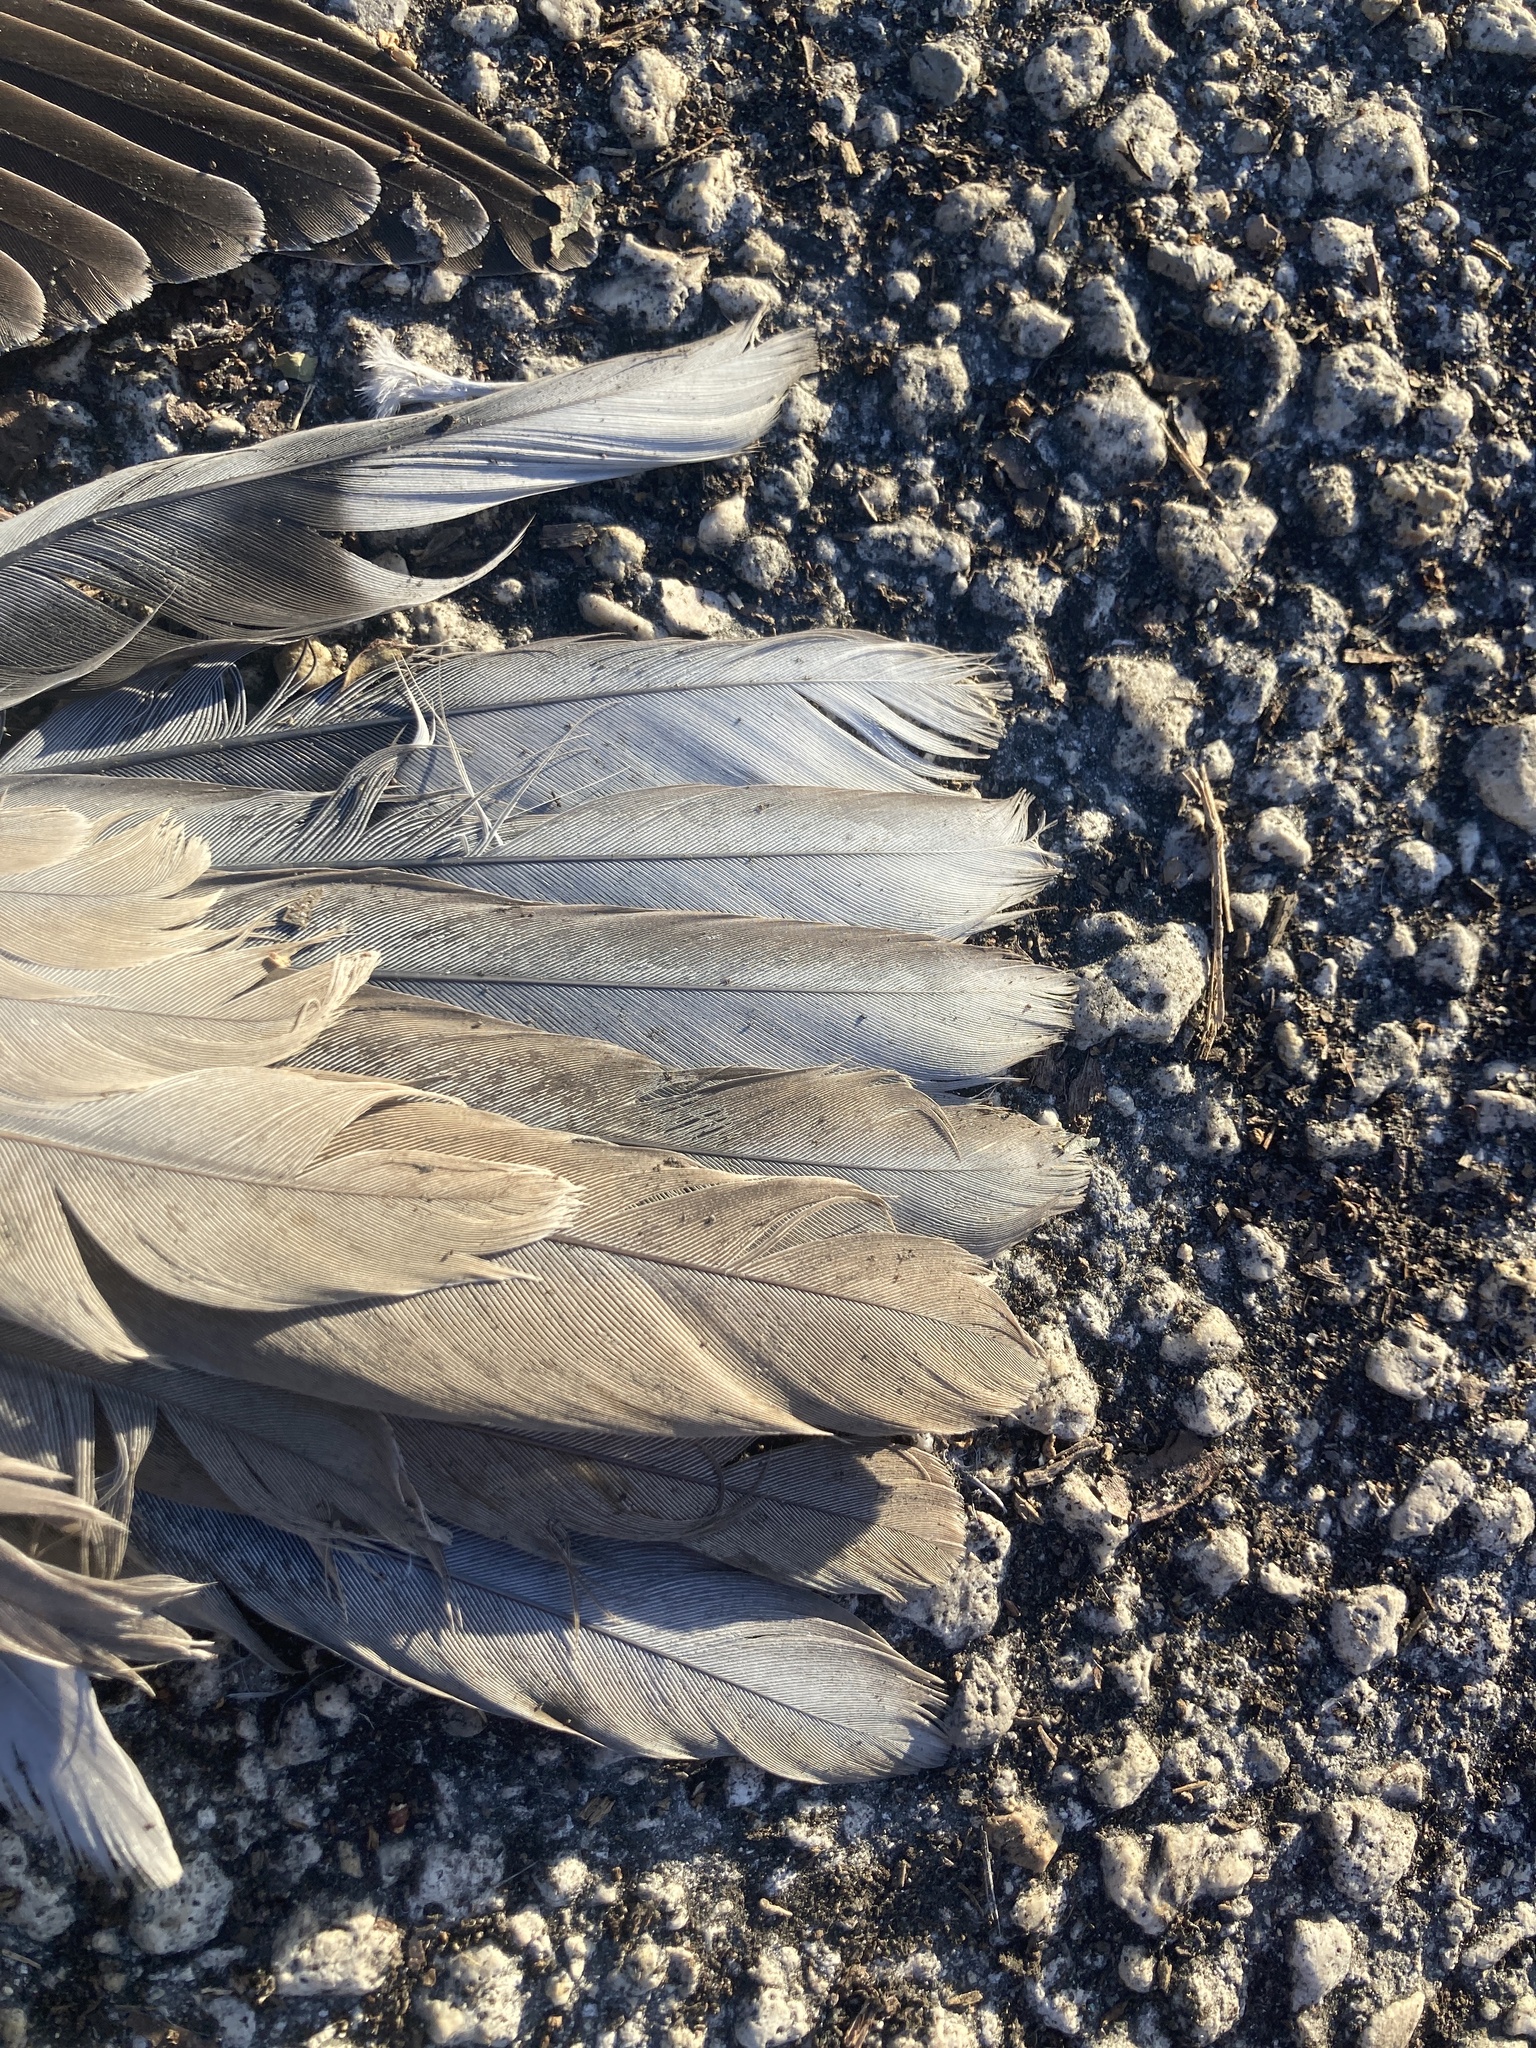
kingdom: Animalia
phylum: Chordata
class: Aves
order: Columbiformes
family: Columbidae
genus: Streptopelia
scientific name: Streptopelia decaocto
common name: Eurasian collared dove
